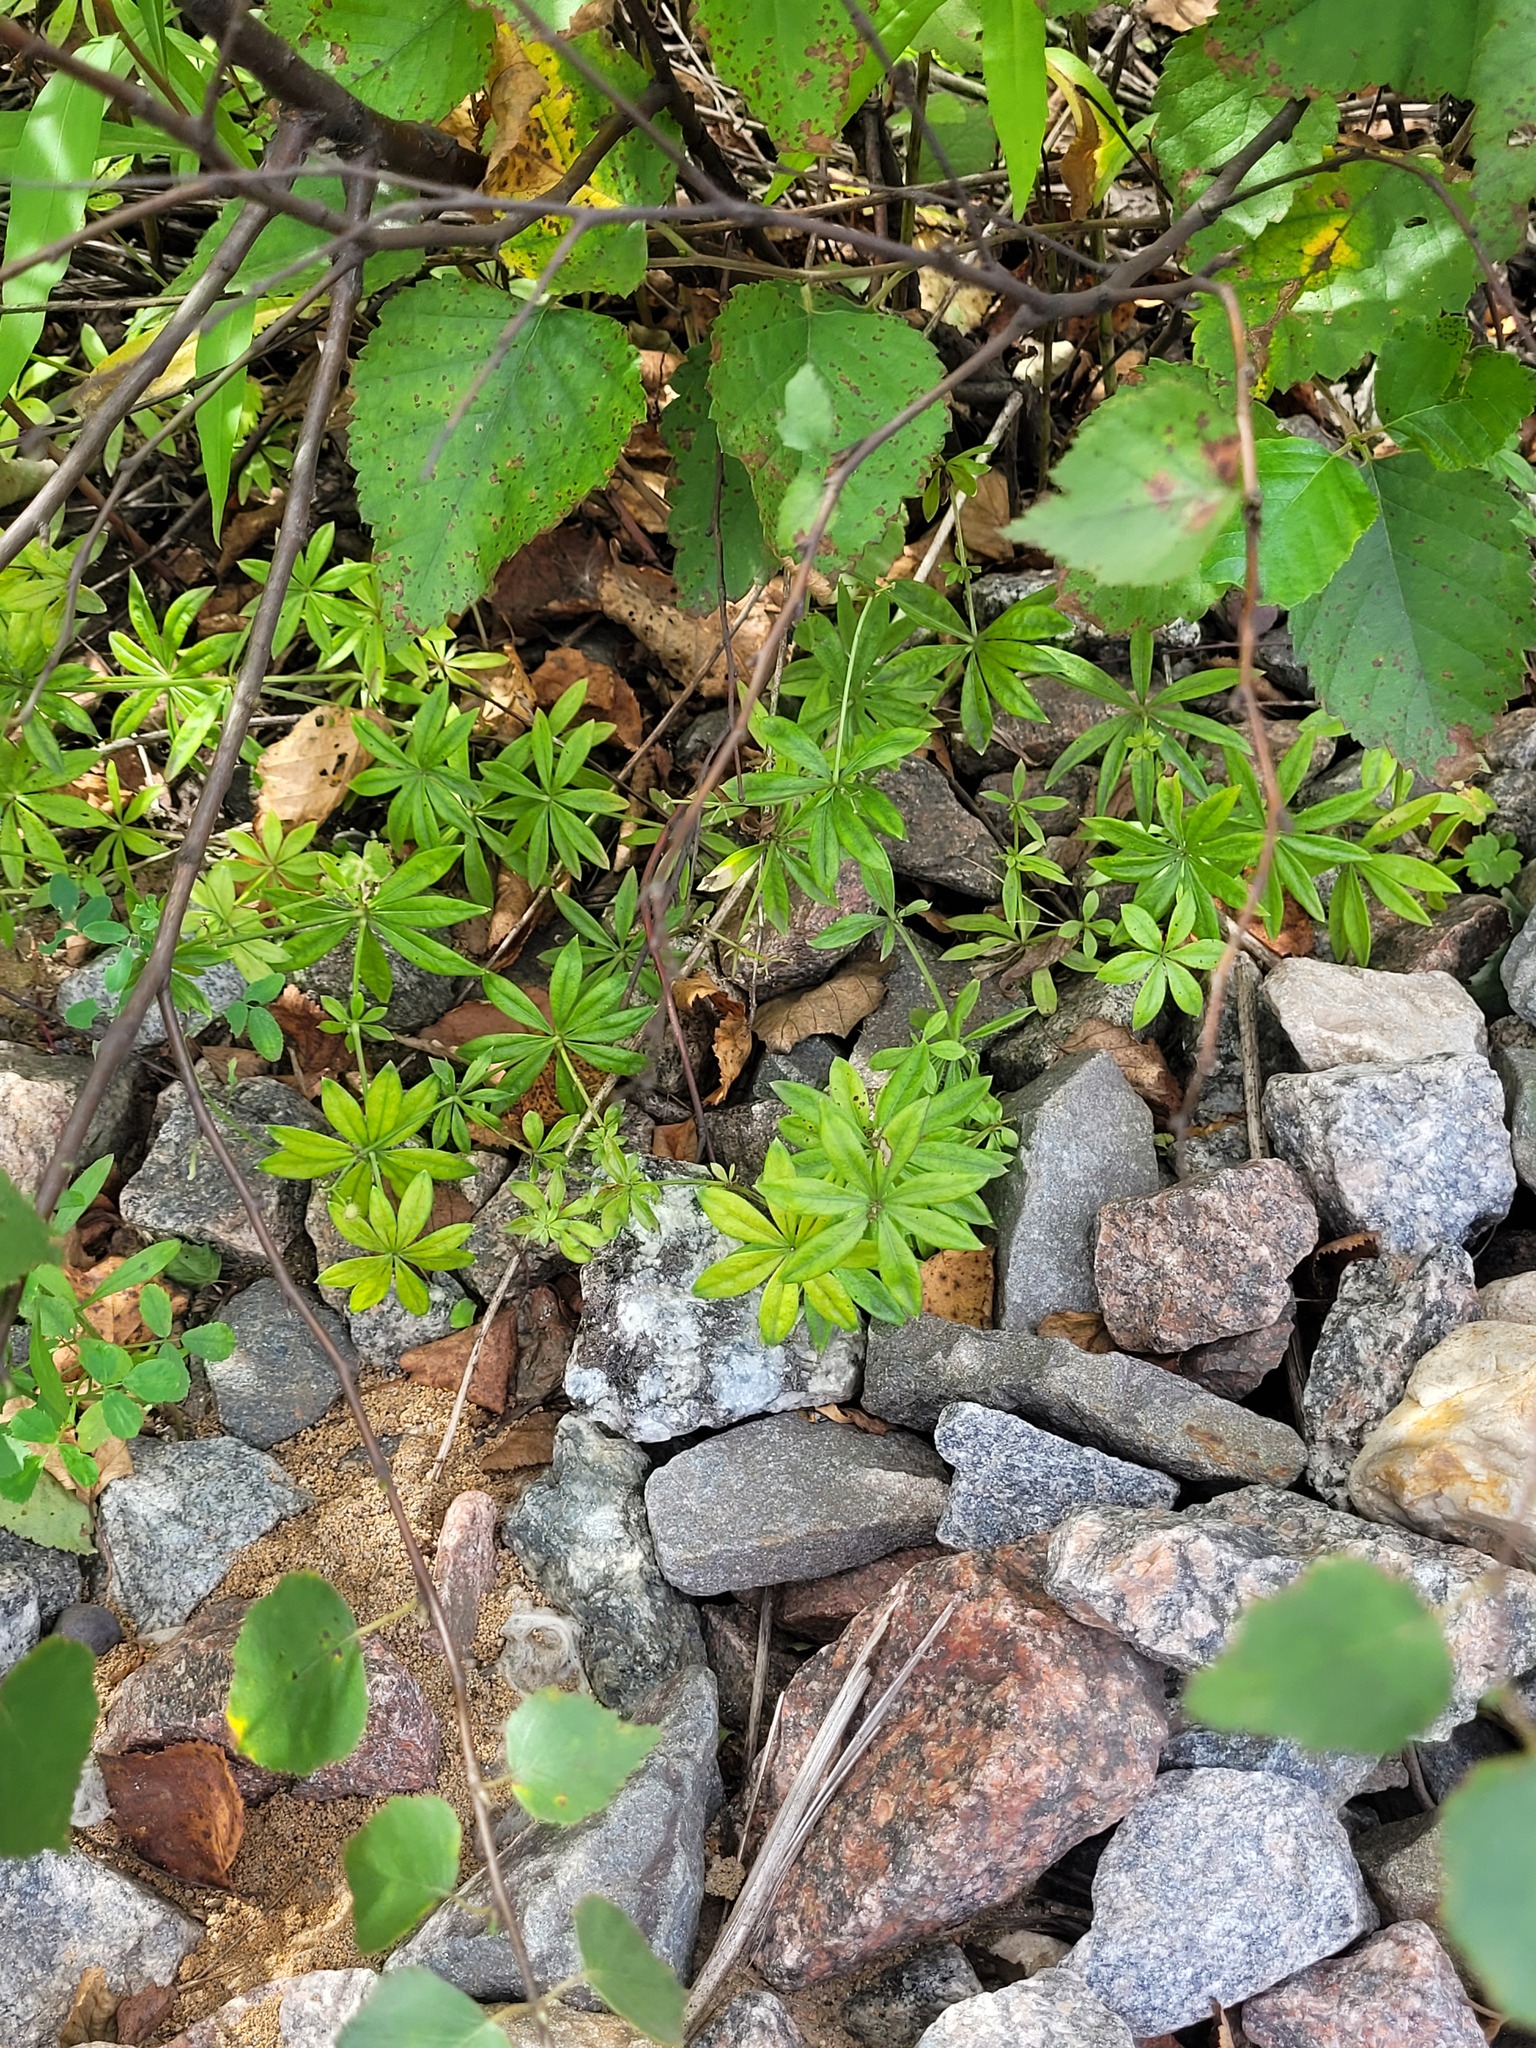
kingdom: Plantae
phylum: Tracheophyta
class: Magnoliopsida
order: Gentianales
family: Rubiaceae
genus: Galium
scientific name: Galium odoratum
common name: Sweet woodruff
